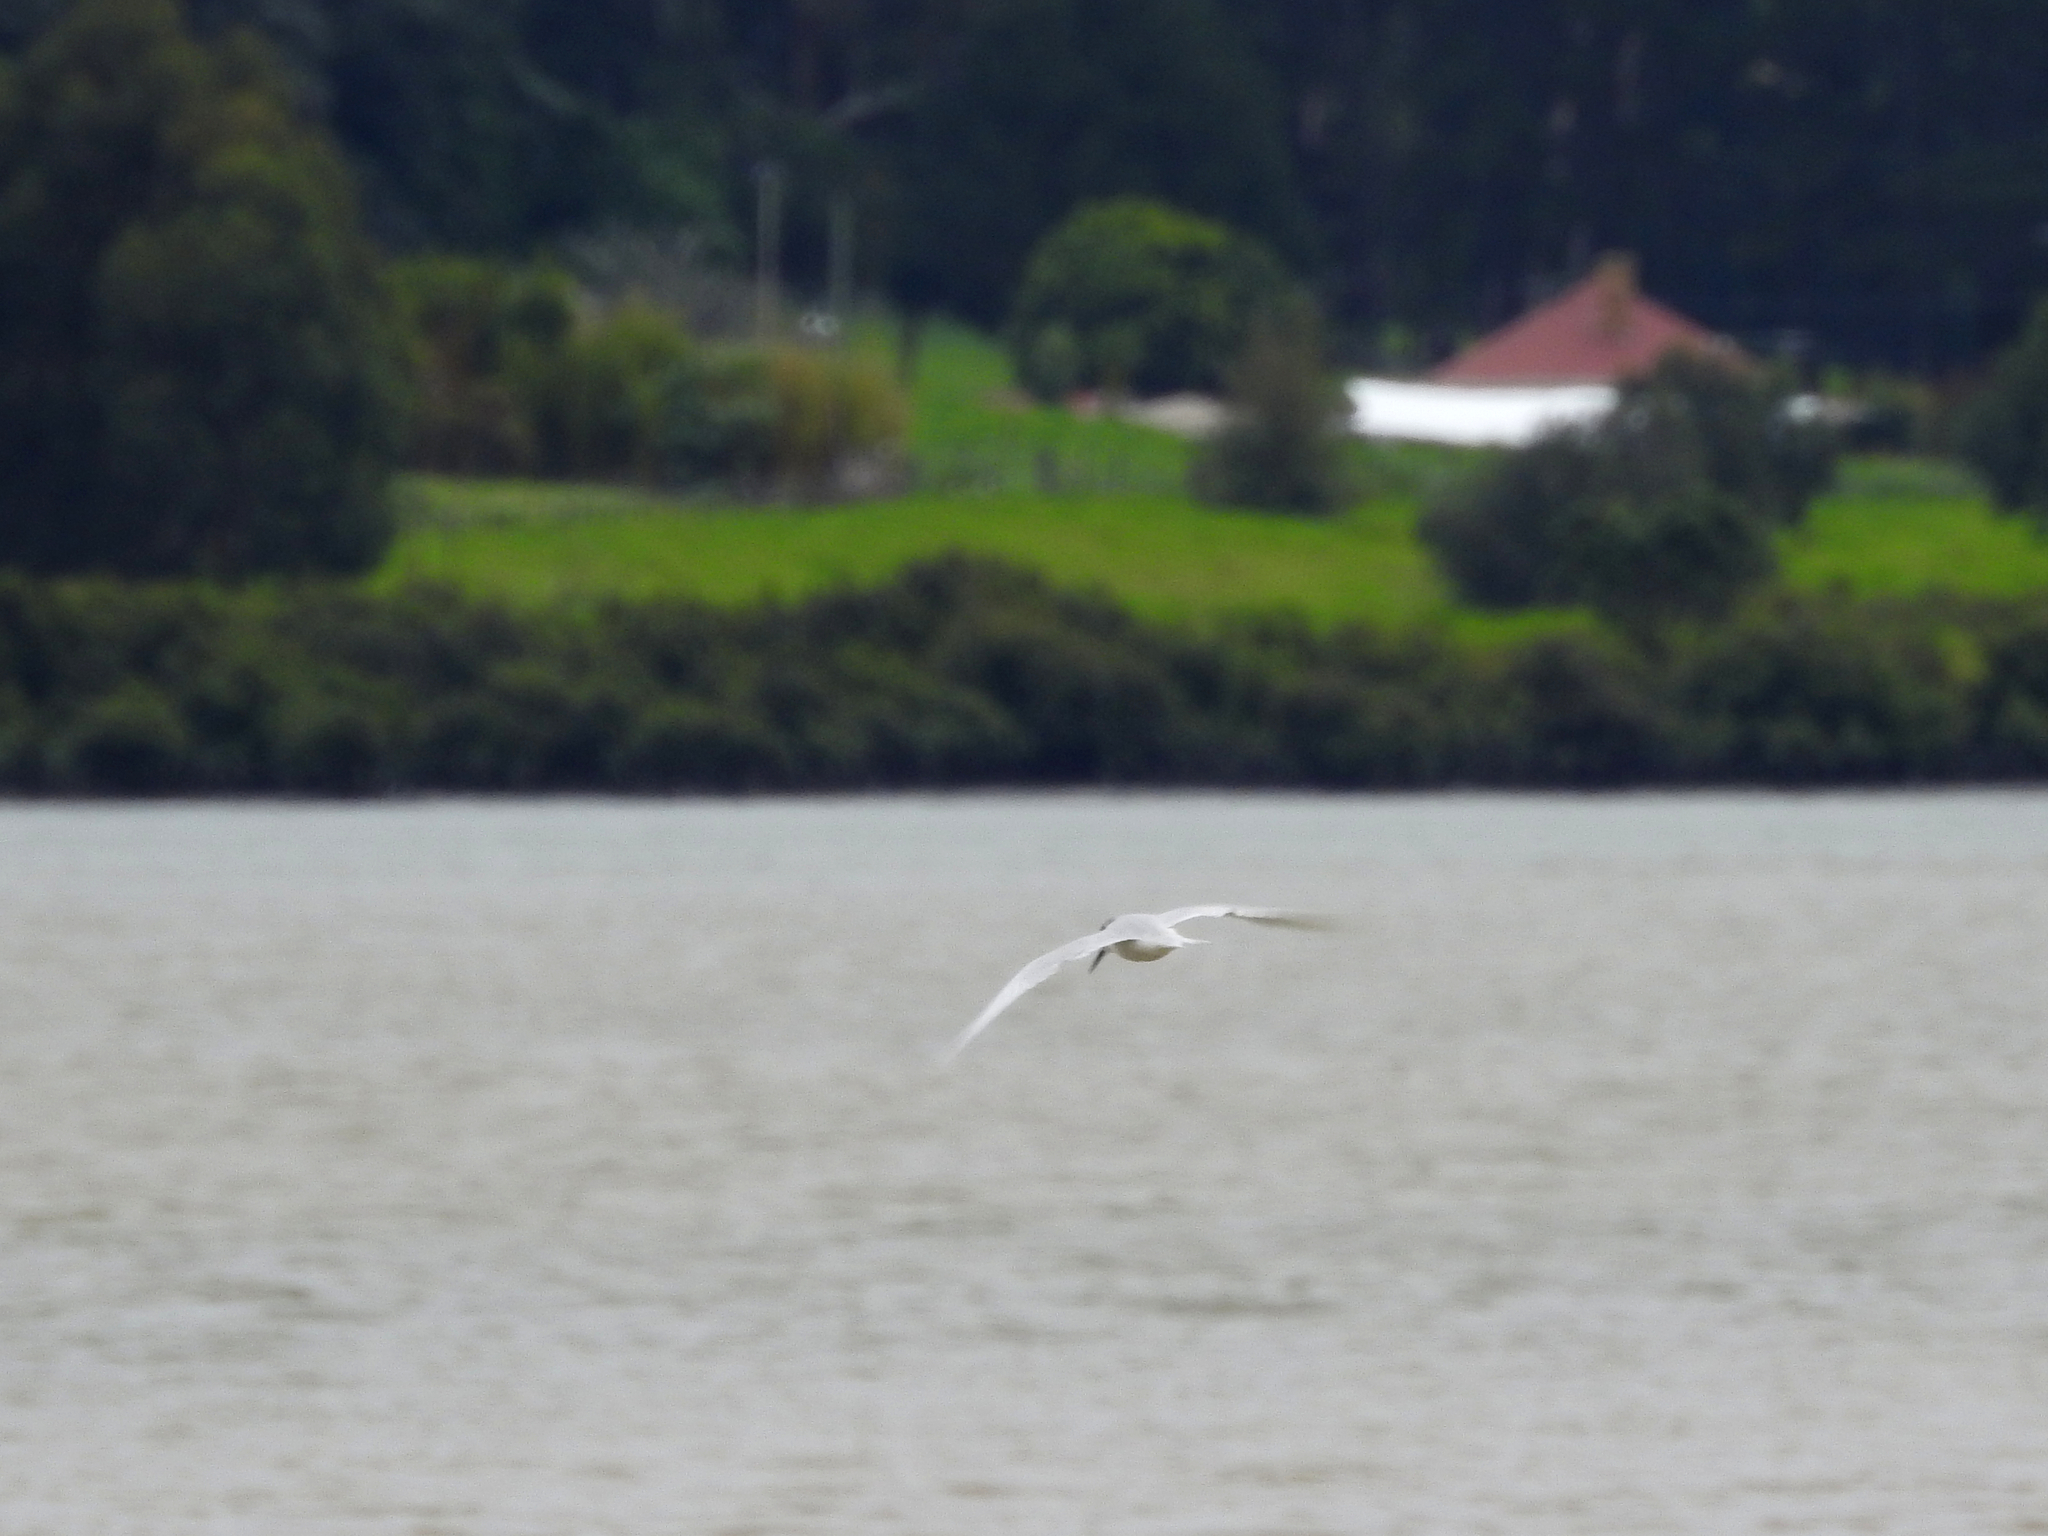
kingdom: Animalia
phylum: Chordata
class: Aves
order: Charadriiformes
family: Laridae
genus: Sterna
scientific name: Sterna striata
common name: White-fronted tern
